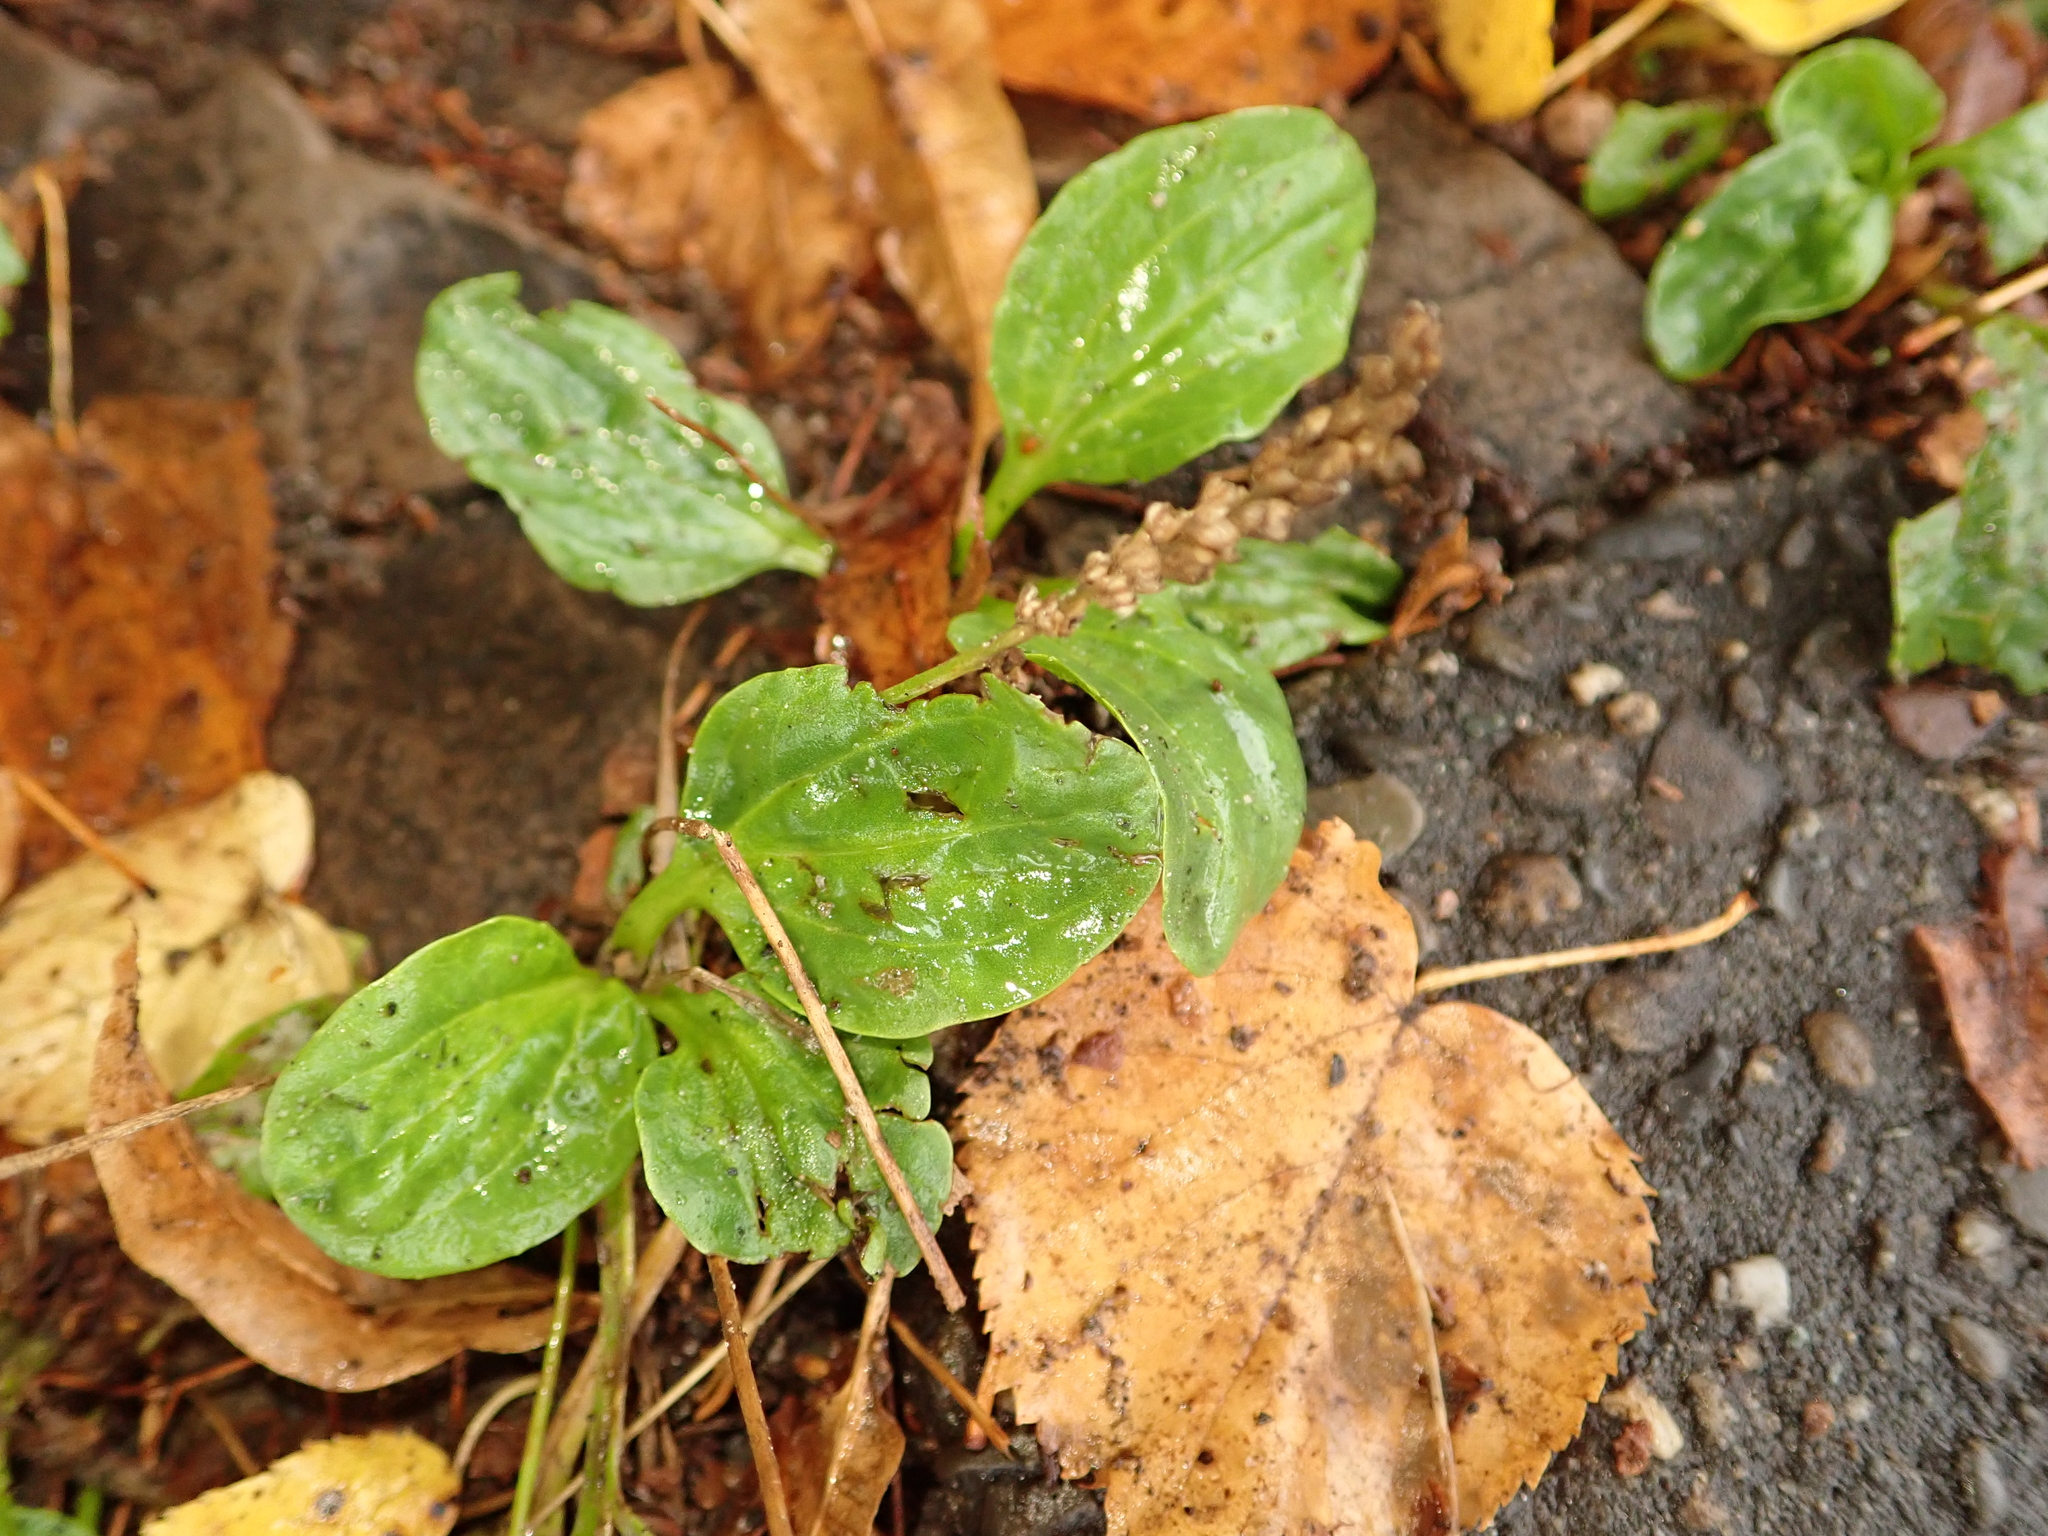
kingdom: Plantae
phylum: Tracheophyta
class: Magnoliopsida
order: Lamiales
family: Plantaginaceae
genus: Plantago
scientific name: Plantago major
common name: Common plantain
